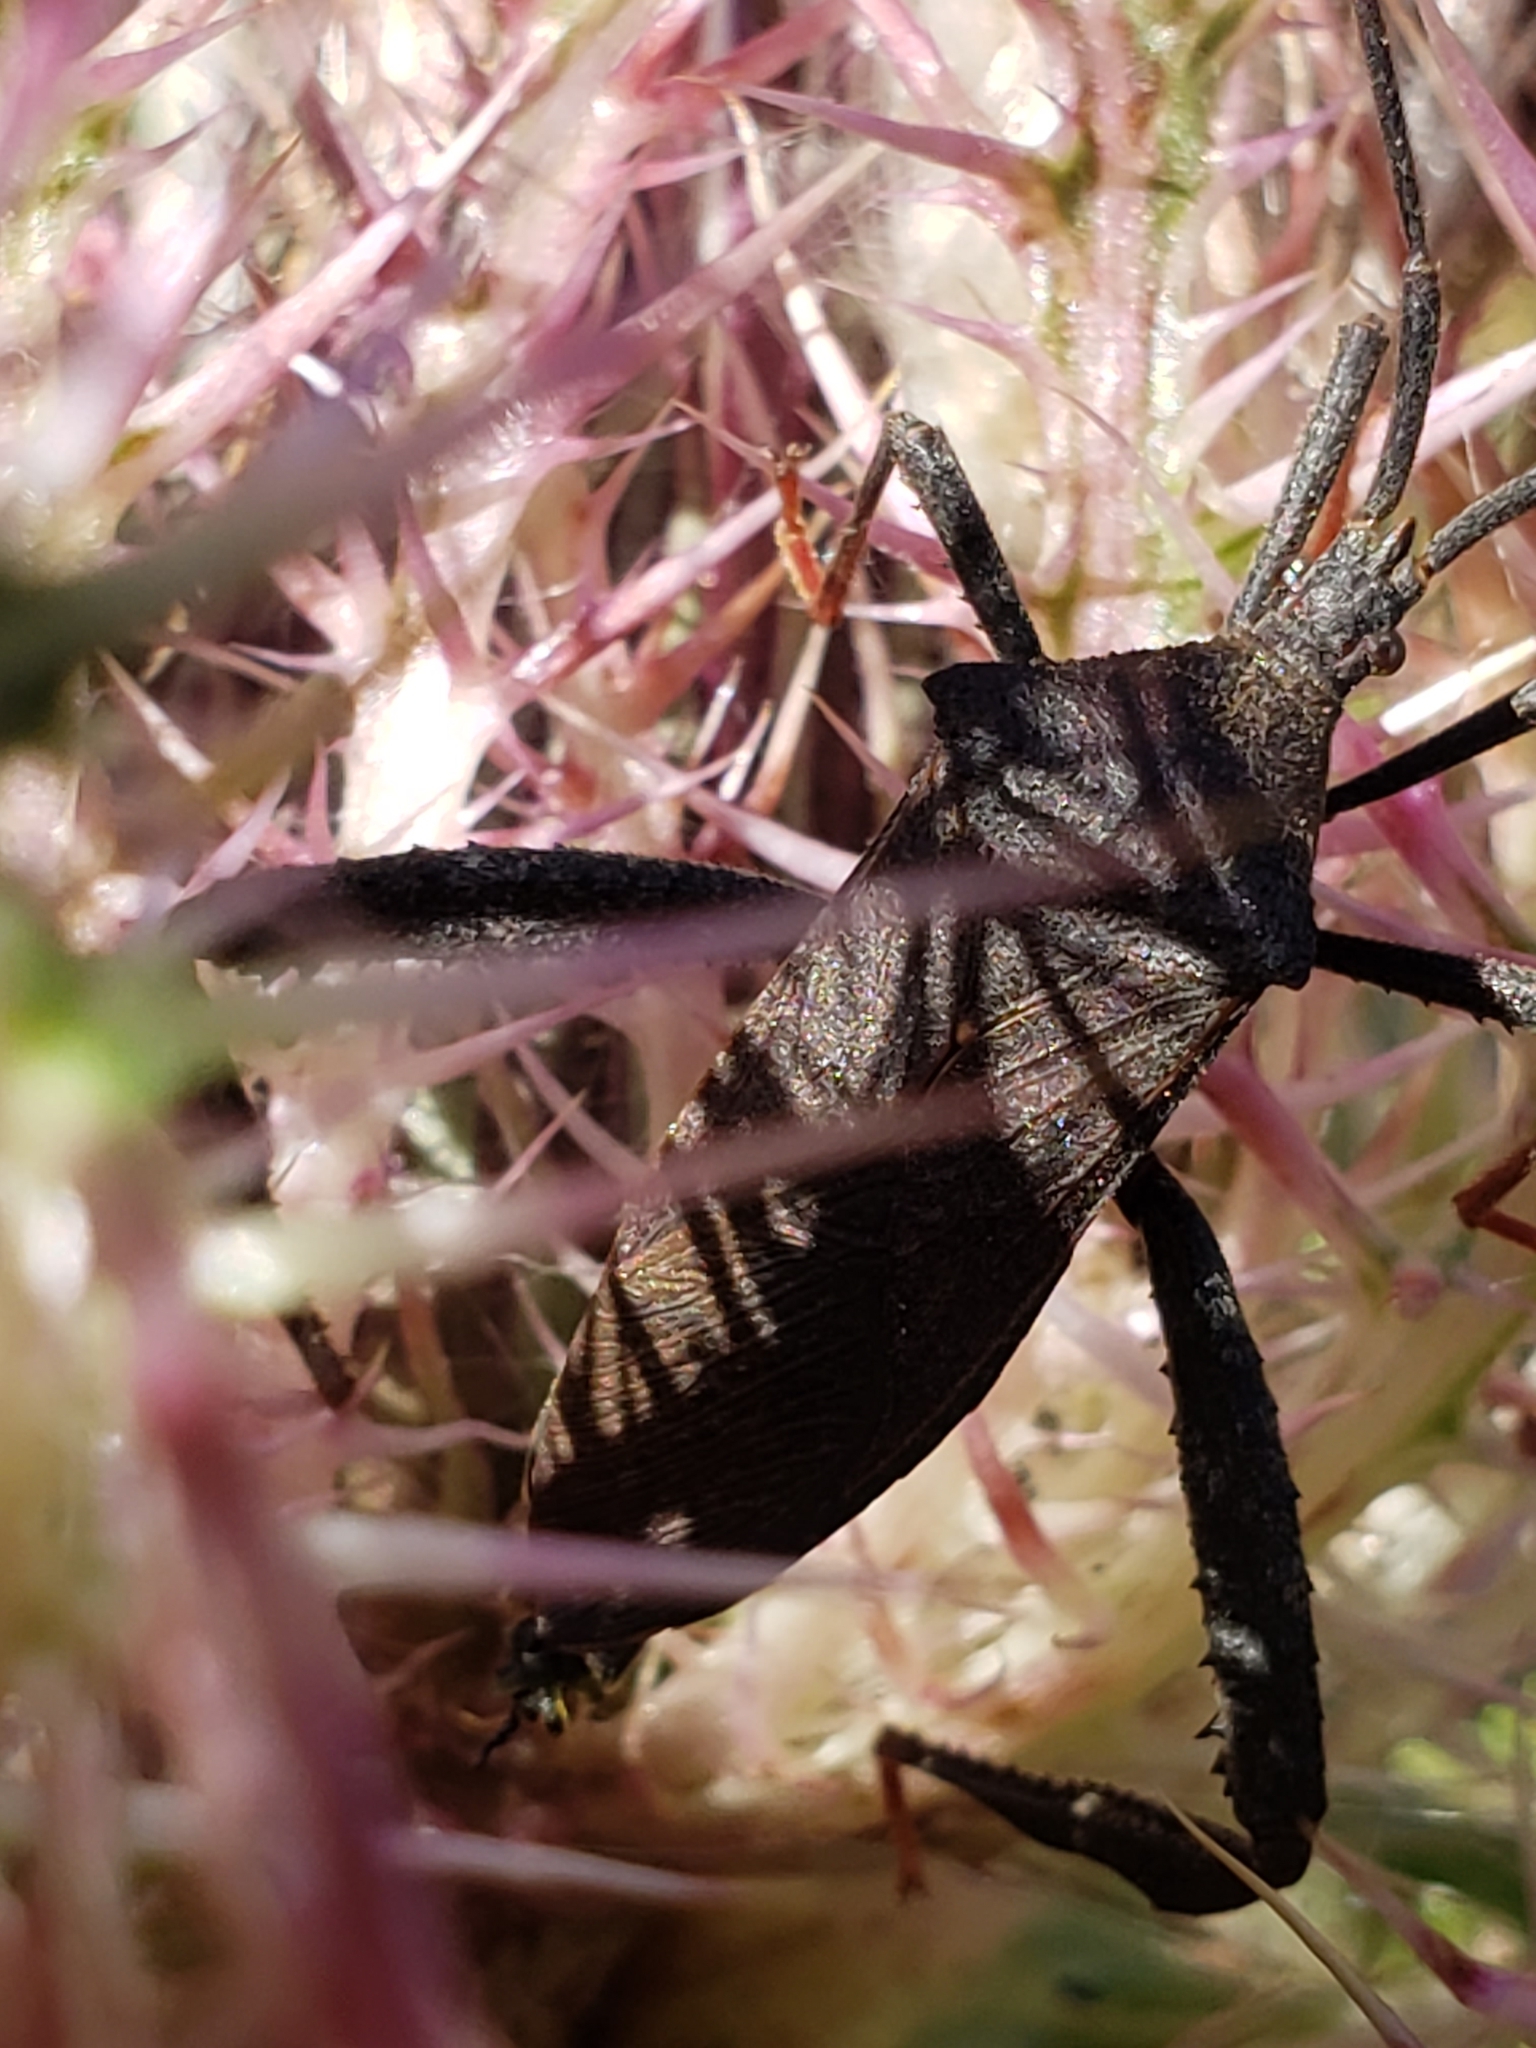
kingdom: Animalia
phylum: Arthropoda
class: Insecta
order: Hemiptera
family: Coreidae
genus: Acanthocephala
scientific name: Acanthocephala terminalis
